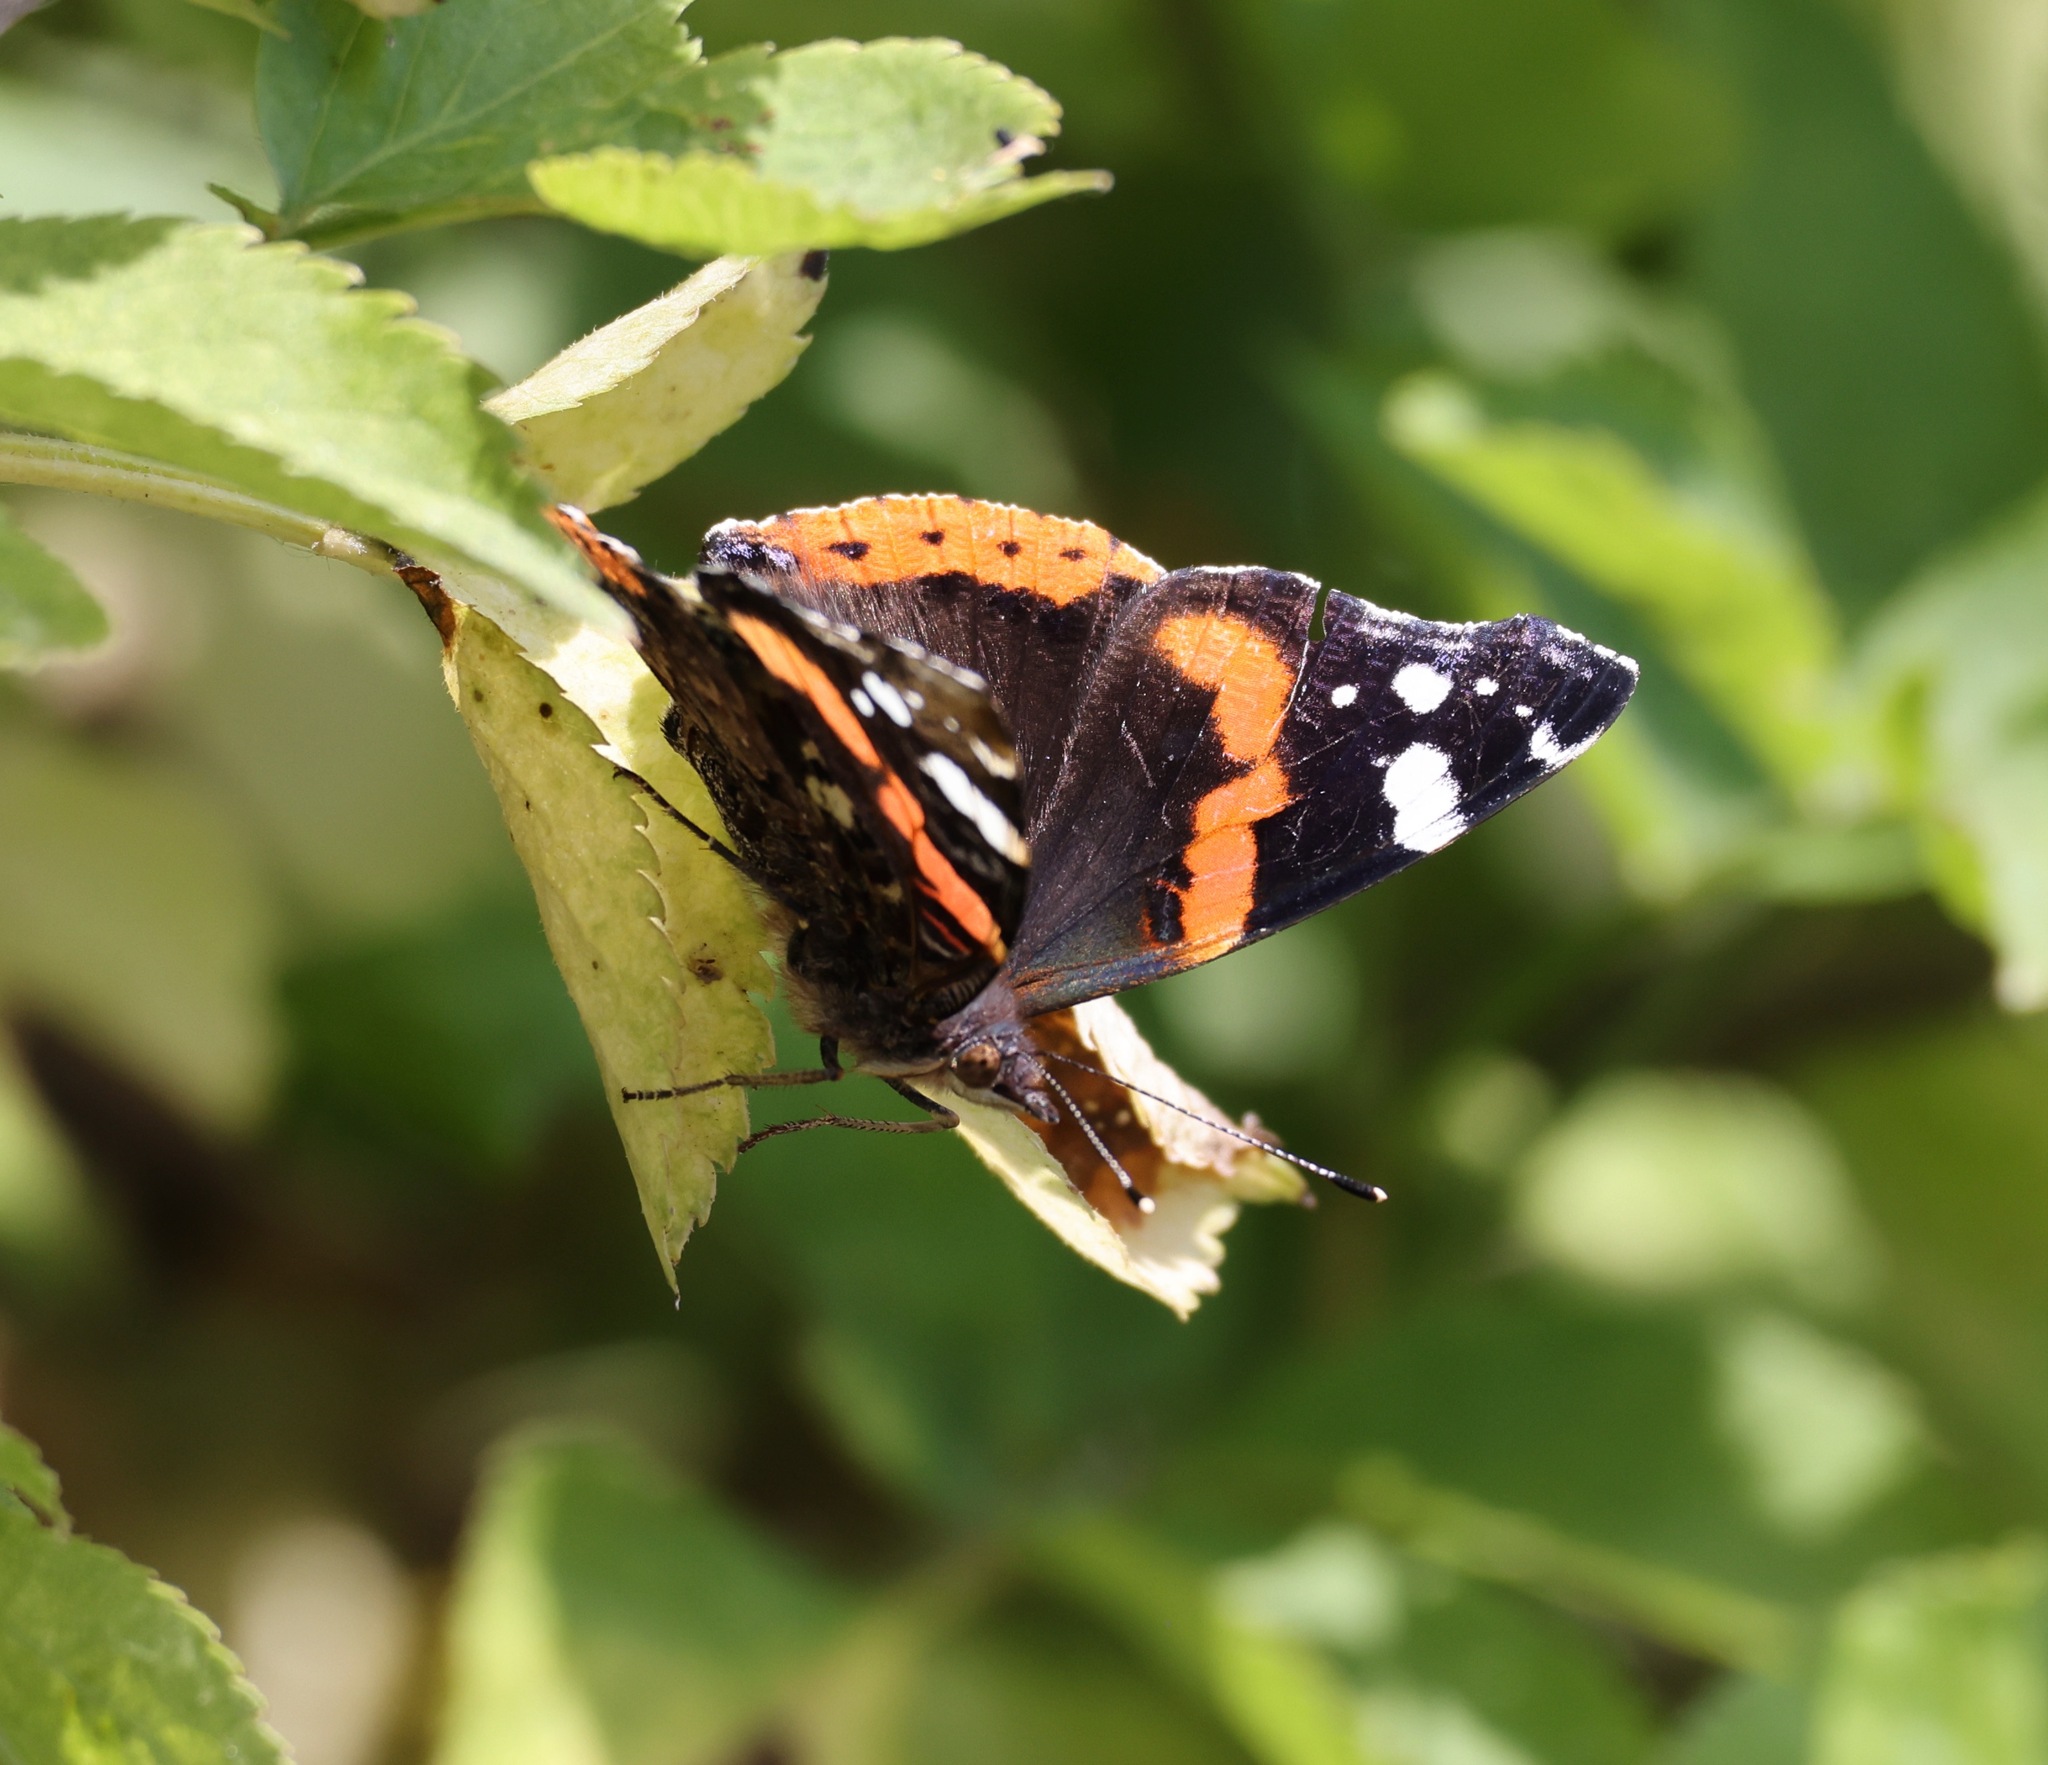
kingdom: Animalia
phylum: Arthropoda
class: Insecta
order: Lepidoptera
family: Nymphalidae
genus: Vanessa
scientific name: Vanessa atalanta
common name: Red admiral
